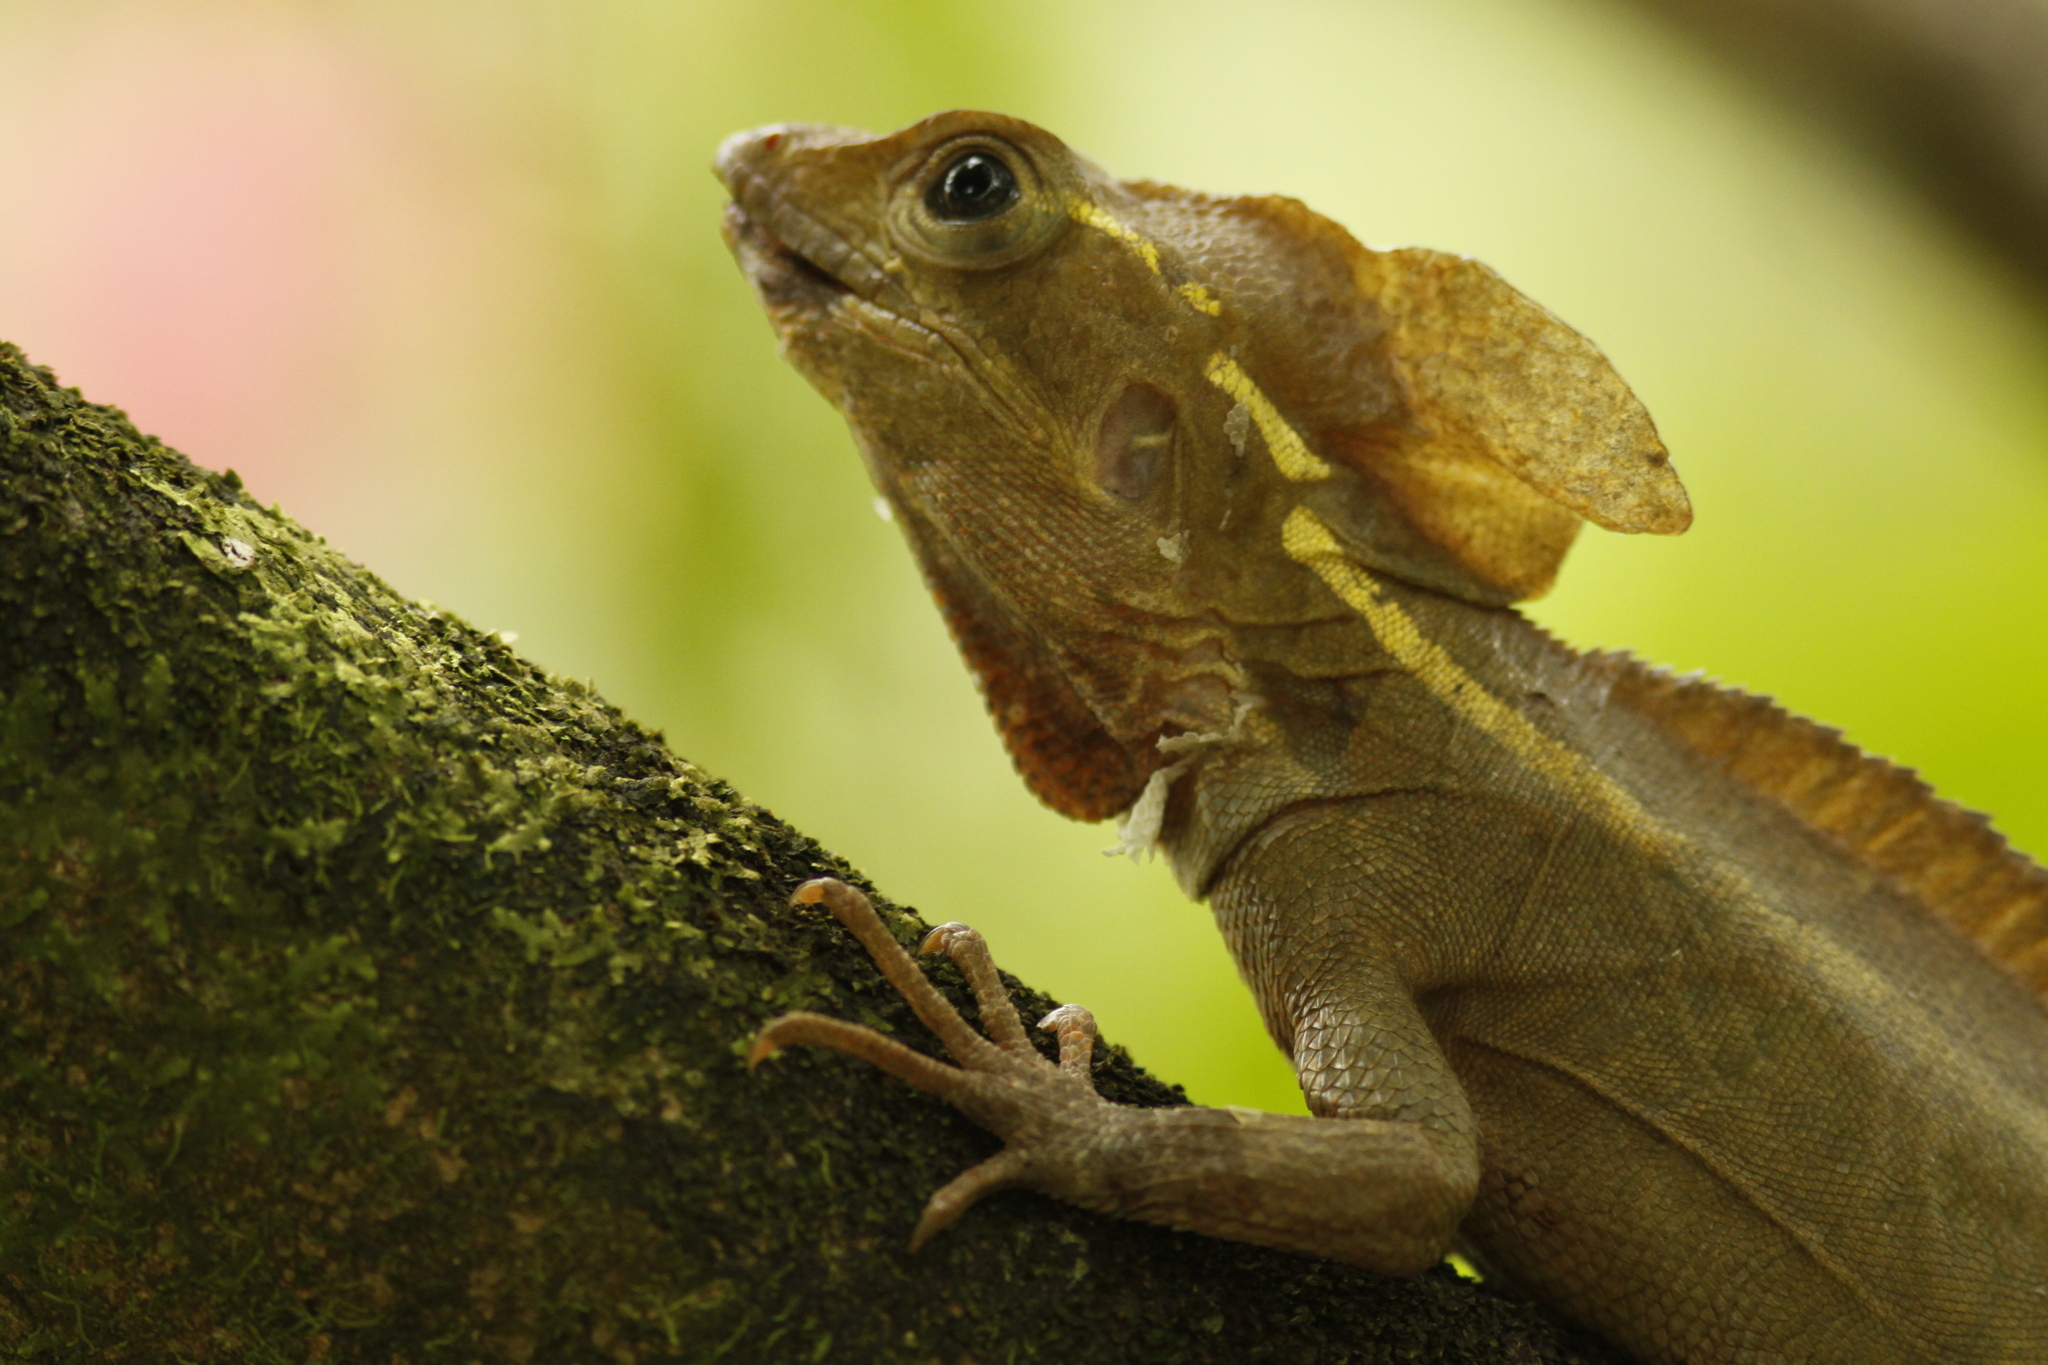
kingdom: Animalia
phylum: Chordata
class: Squamata
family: Corytophanidae
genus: Basiliscus
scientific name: Basiliscus vittatus
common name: Brown basilisk
